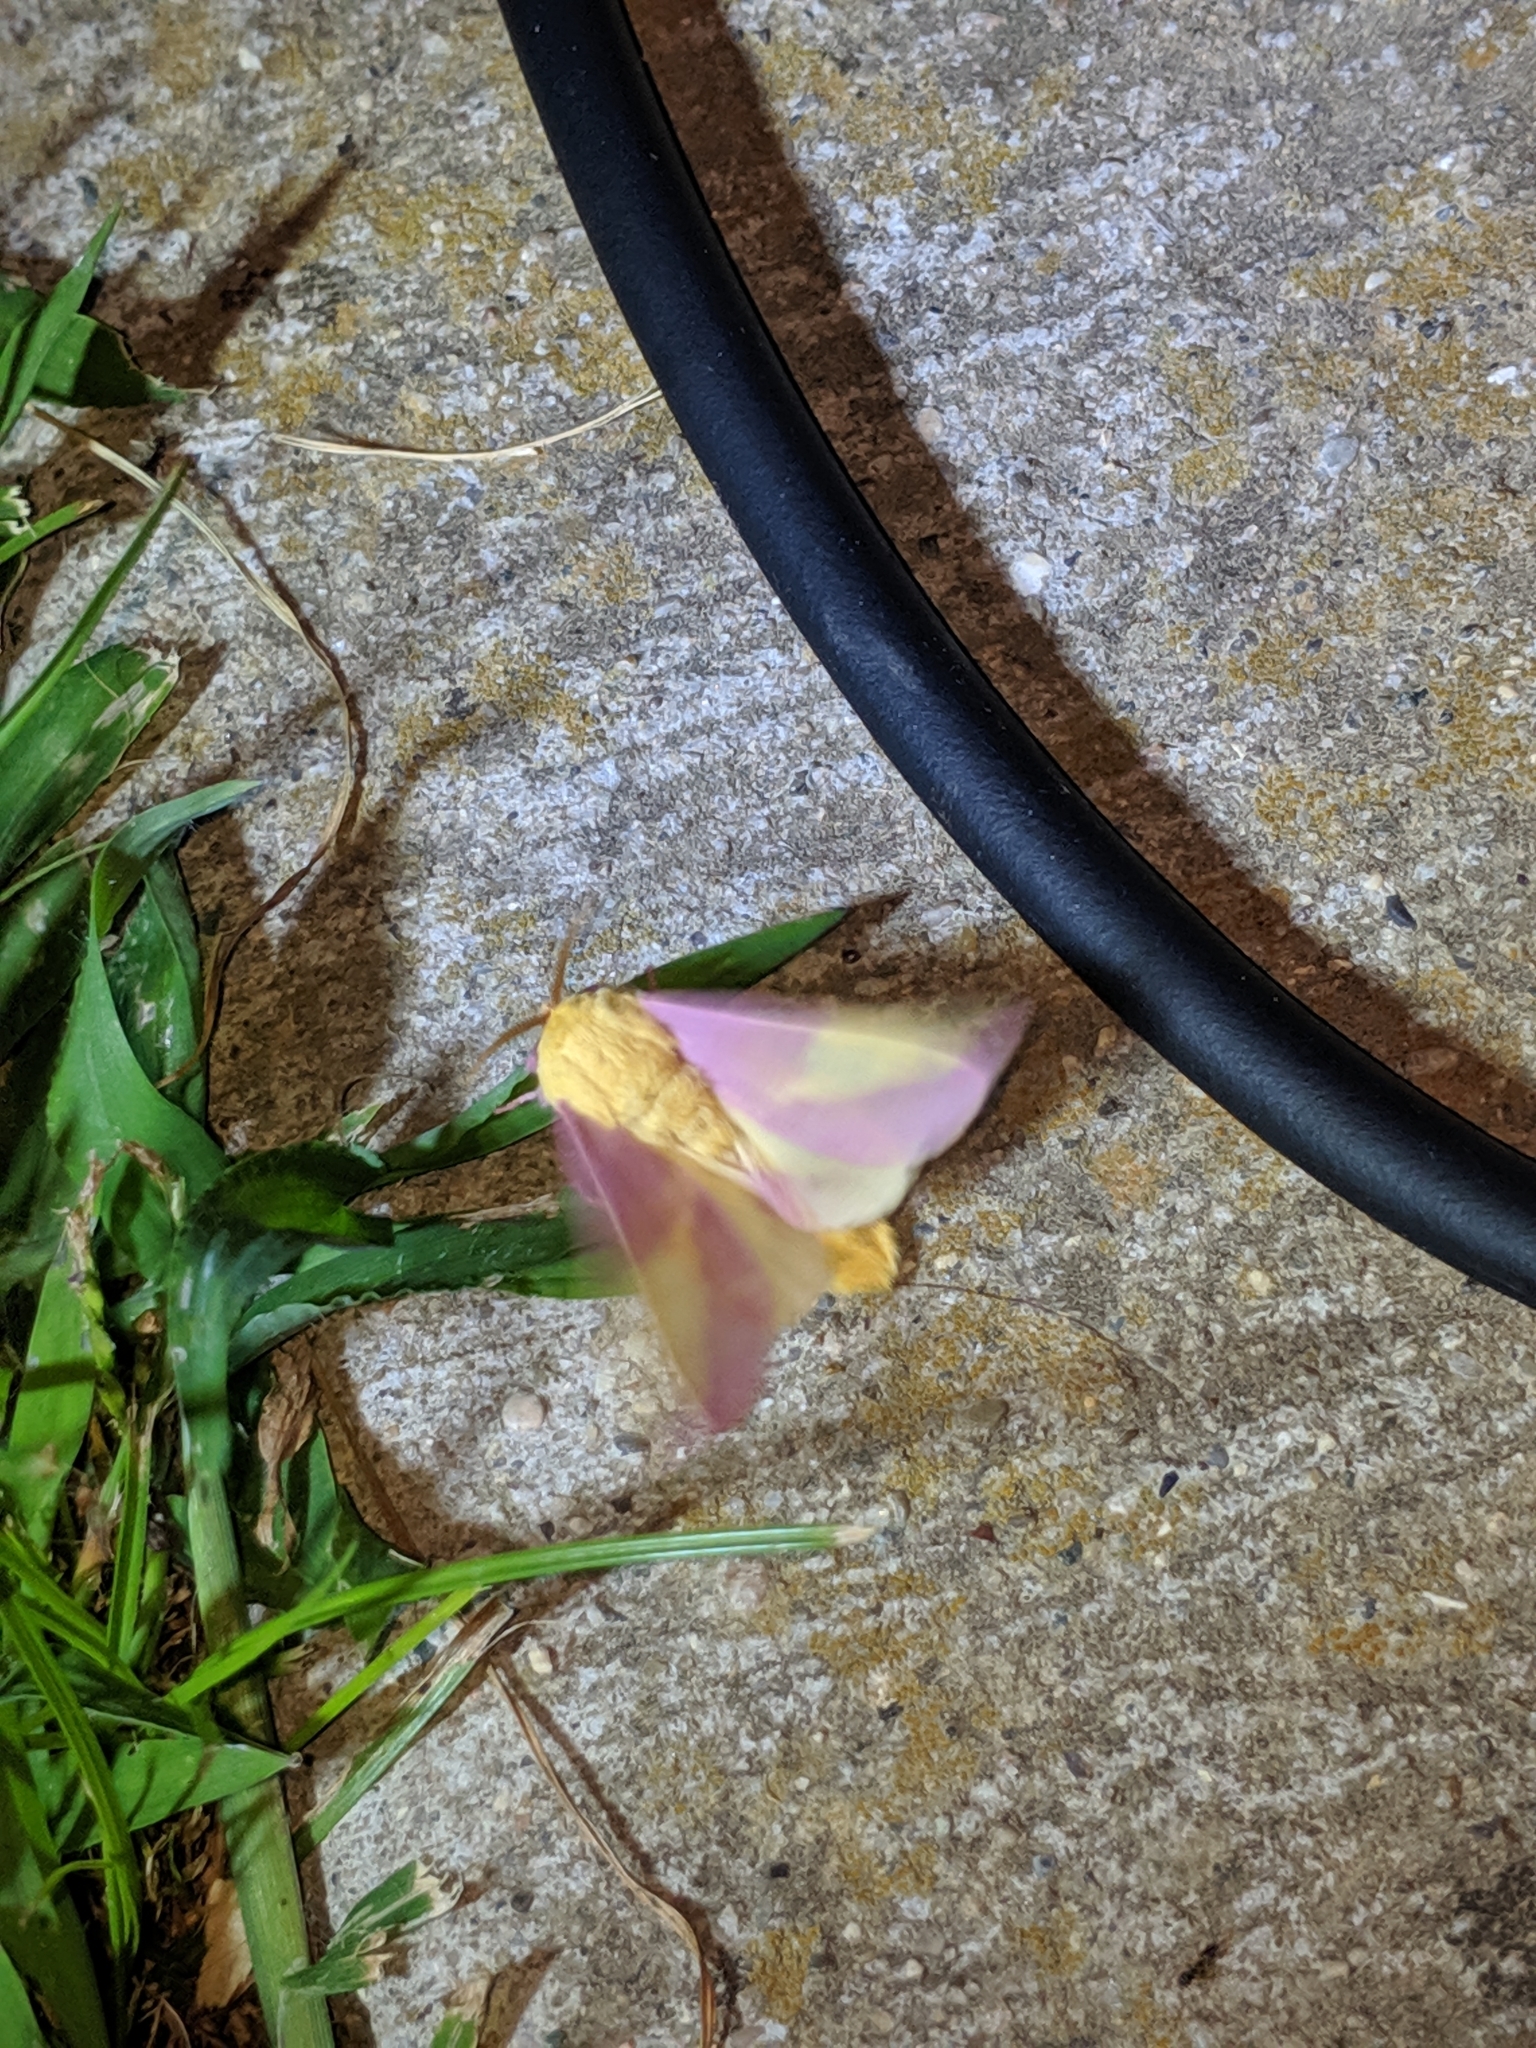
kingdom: Animalia
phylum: Arthropoda
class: Insecta
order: Lepidoptera
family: Saturniidae
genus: Dryocampa
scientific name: Dryocampa rubicunda
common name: Rosy maple moth
